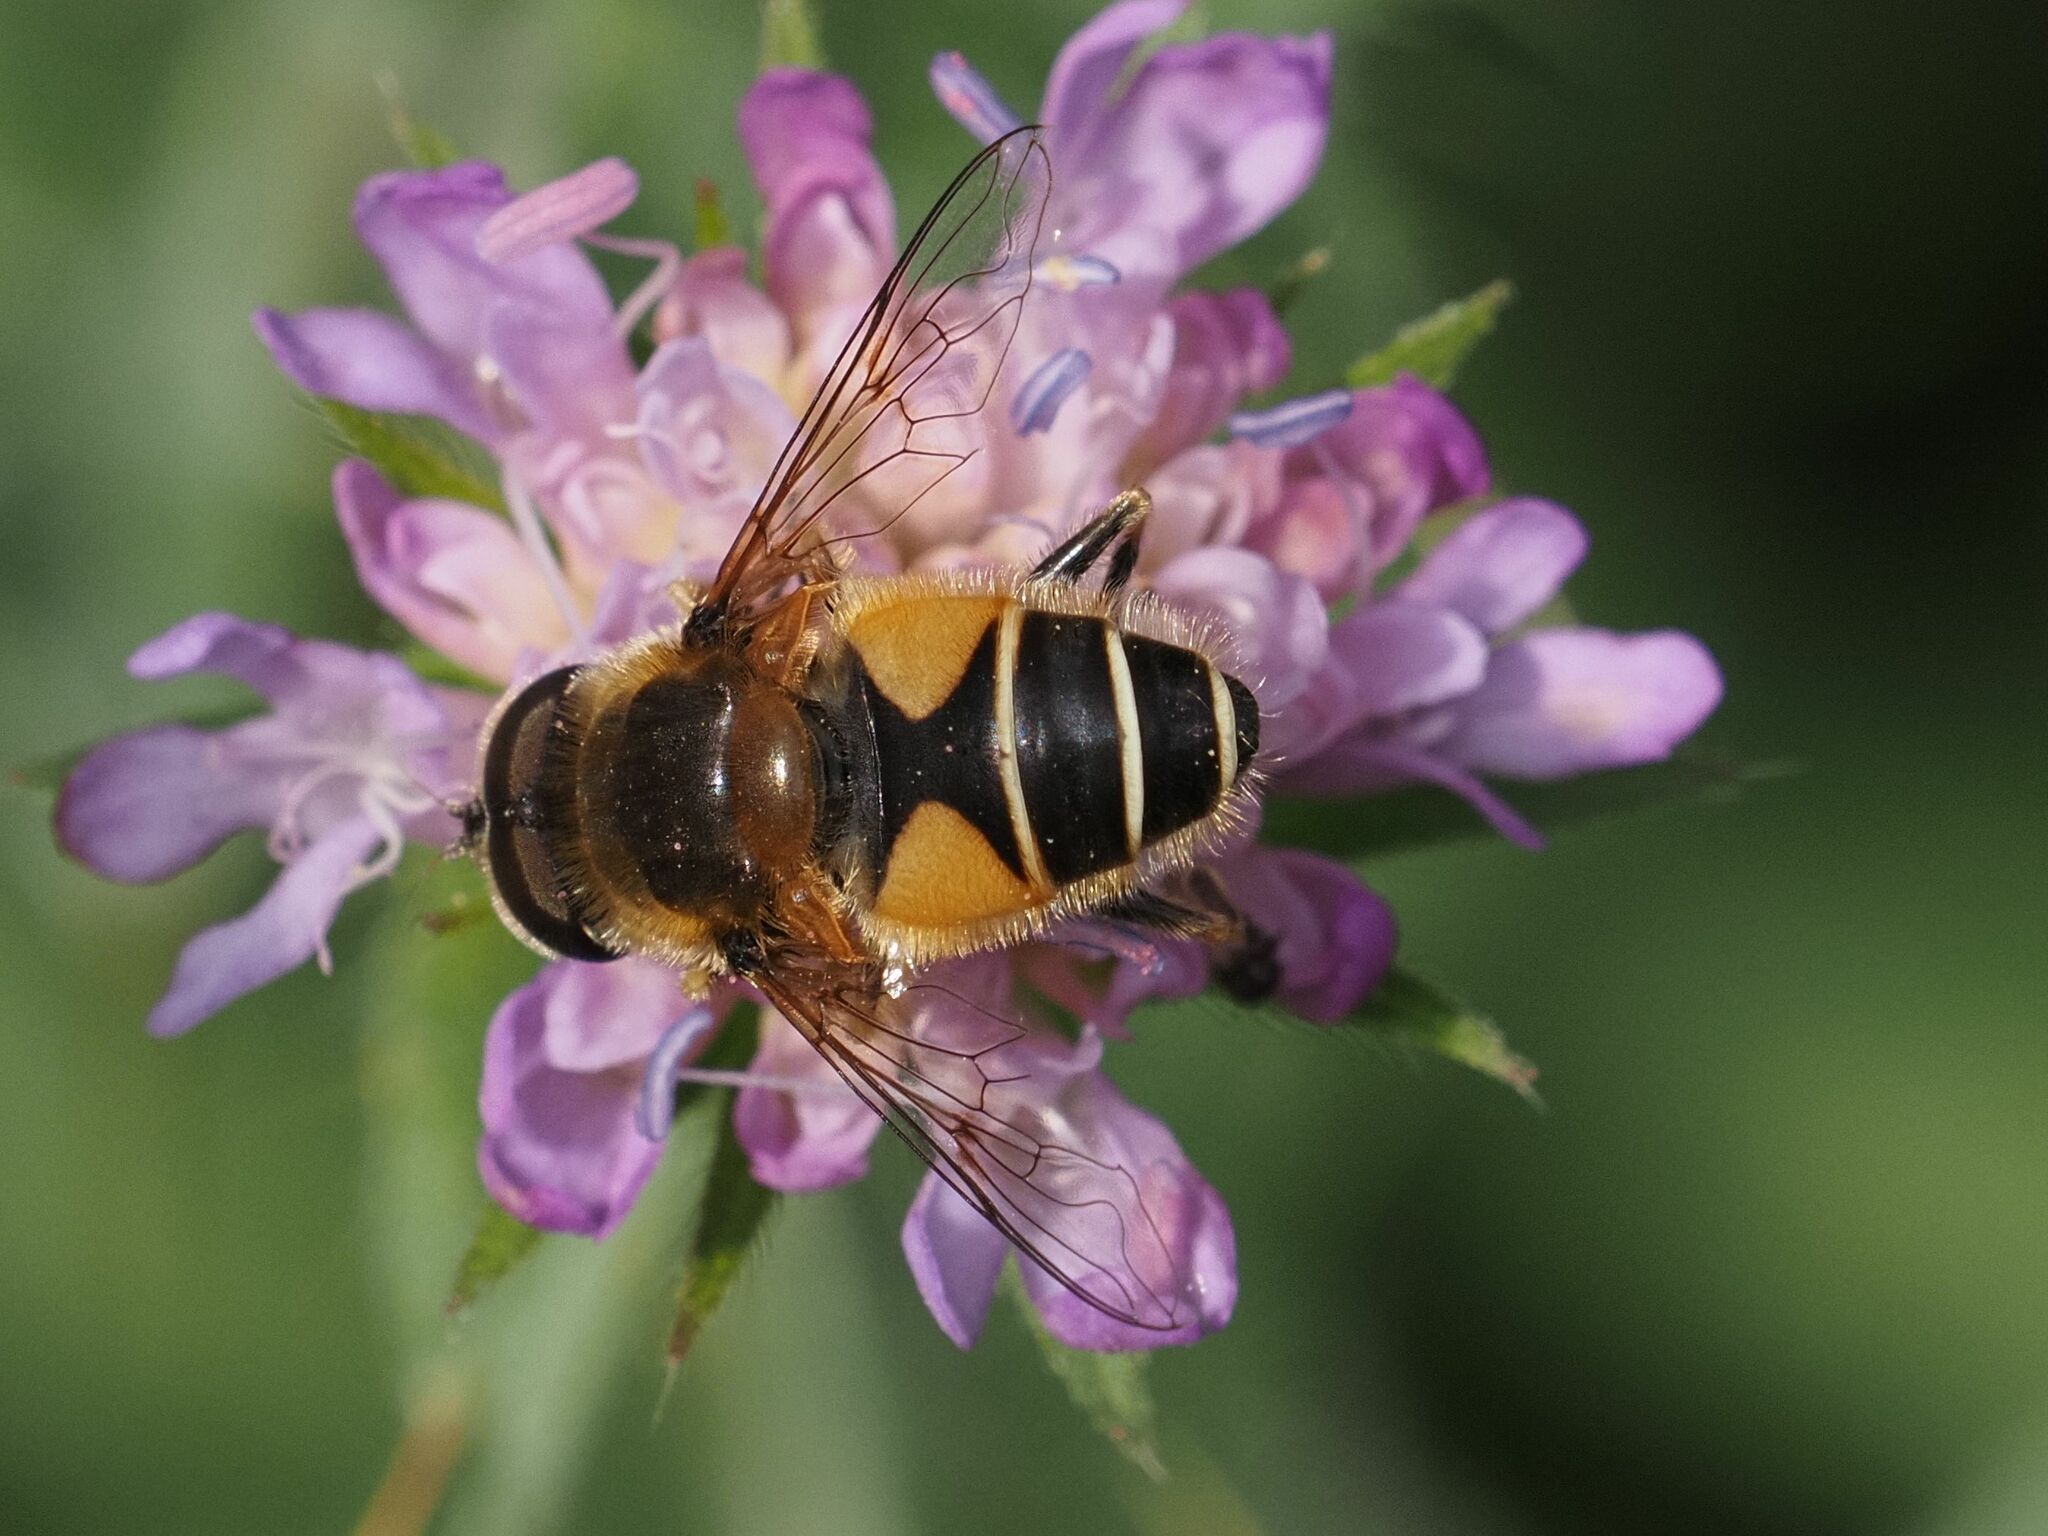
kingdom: Animalia
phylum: Arthropoda
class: Insecta
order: Diptera
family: Syrphidae
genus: Eristalis
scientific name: Eristalis jugorum
